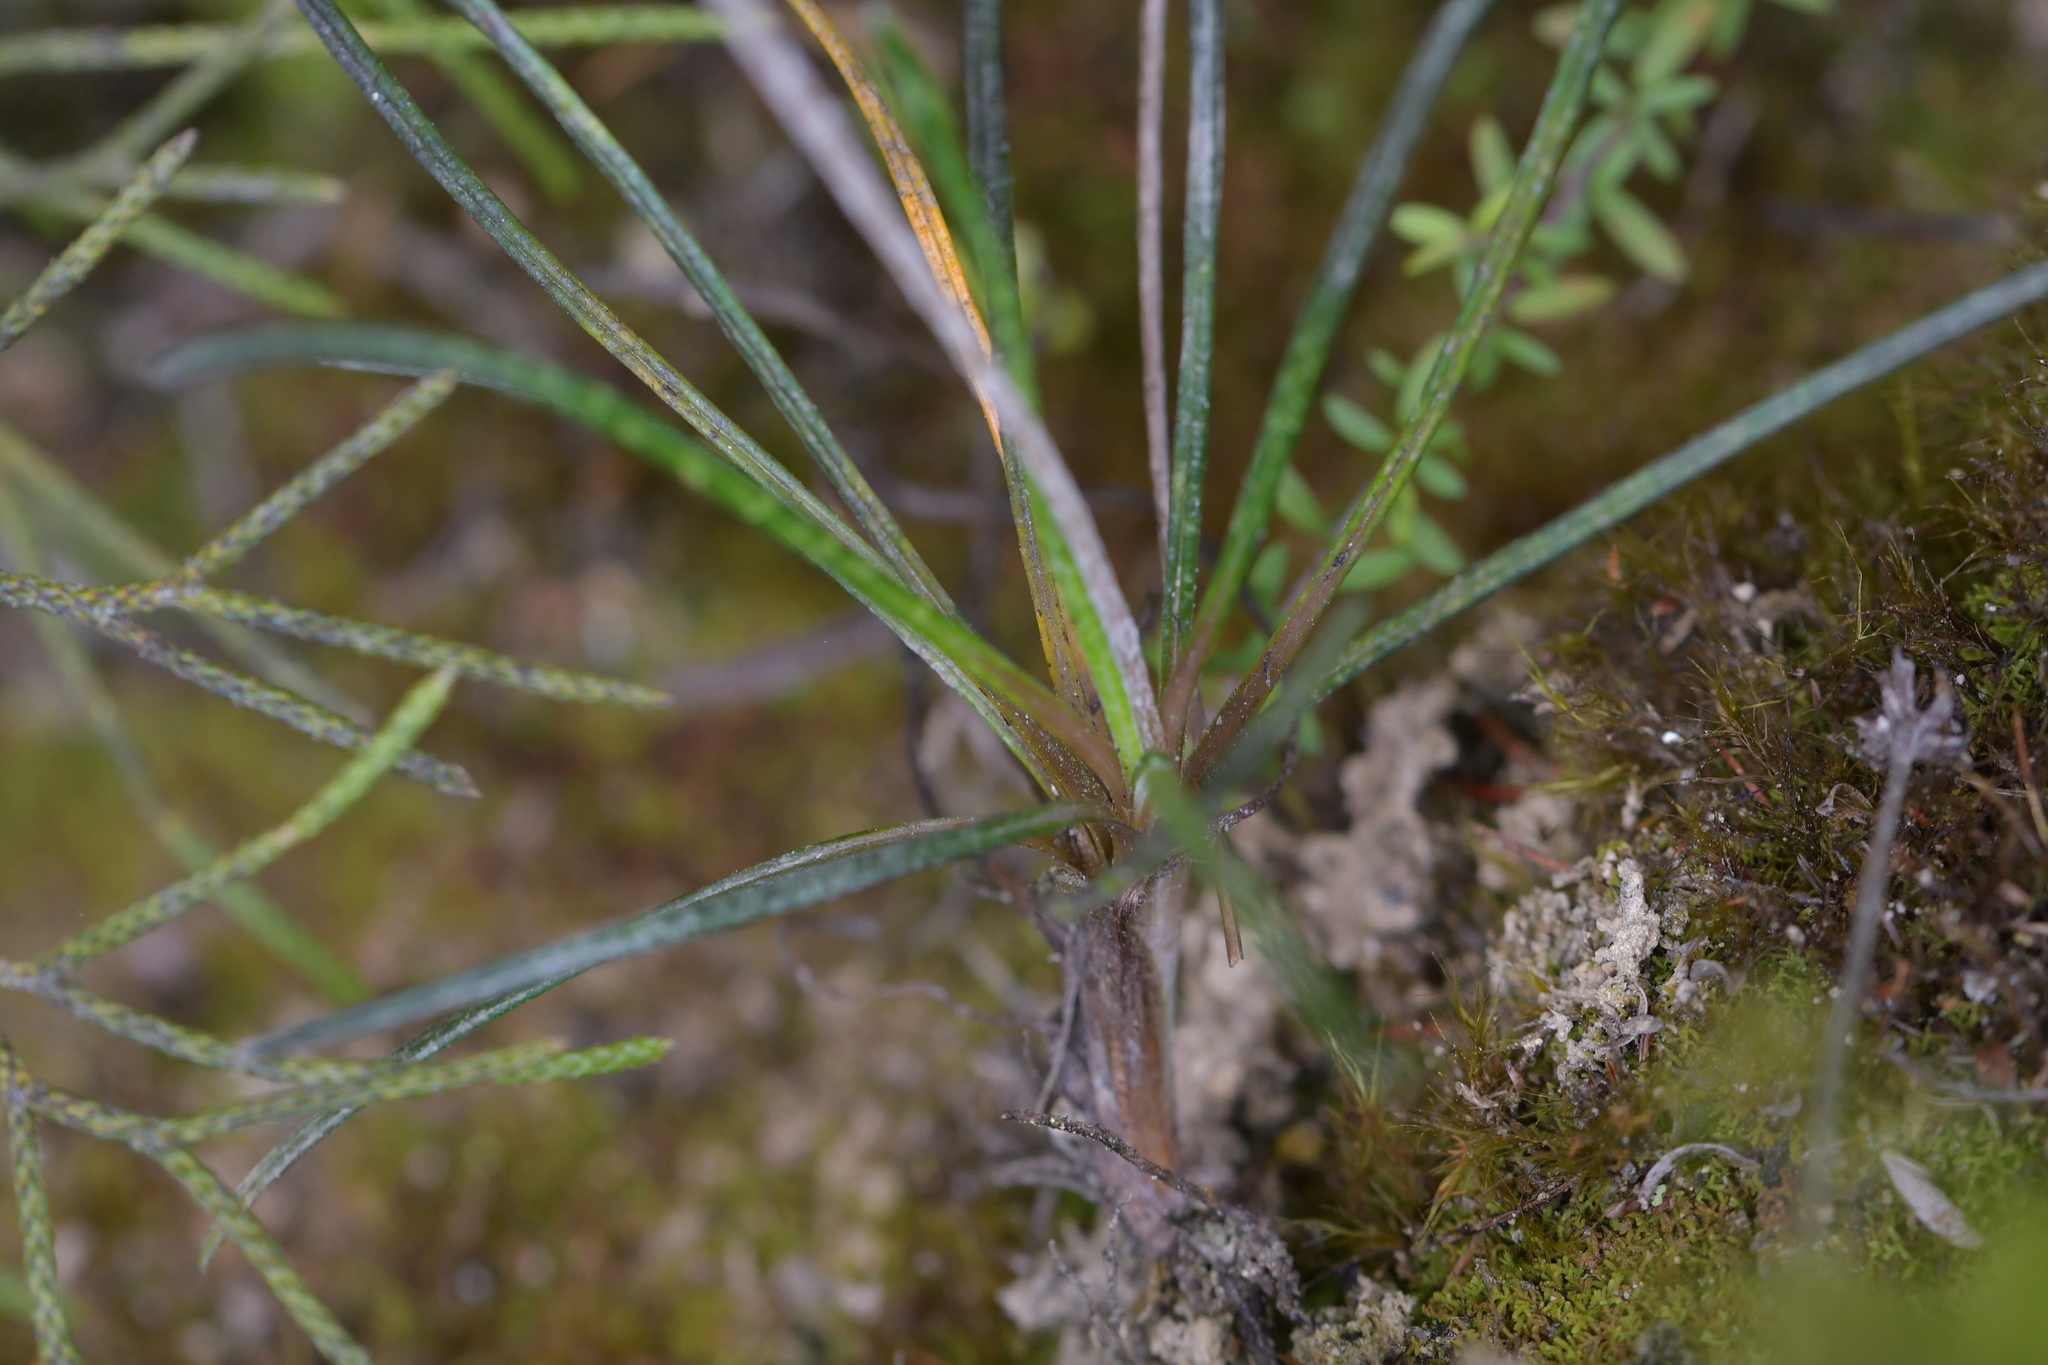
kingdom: Plantae
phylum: Tracheophyta
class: Magnoliopsida
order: Asterales
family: Asteraceae
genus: Celmisia
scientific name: Celmisia gracilenta
